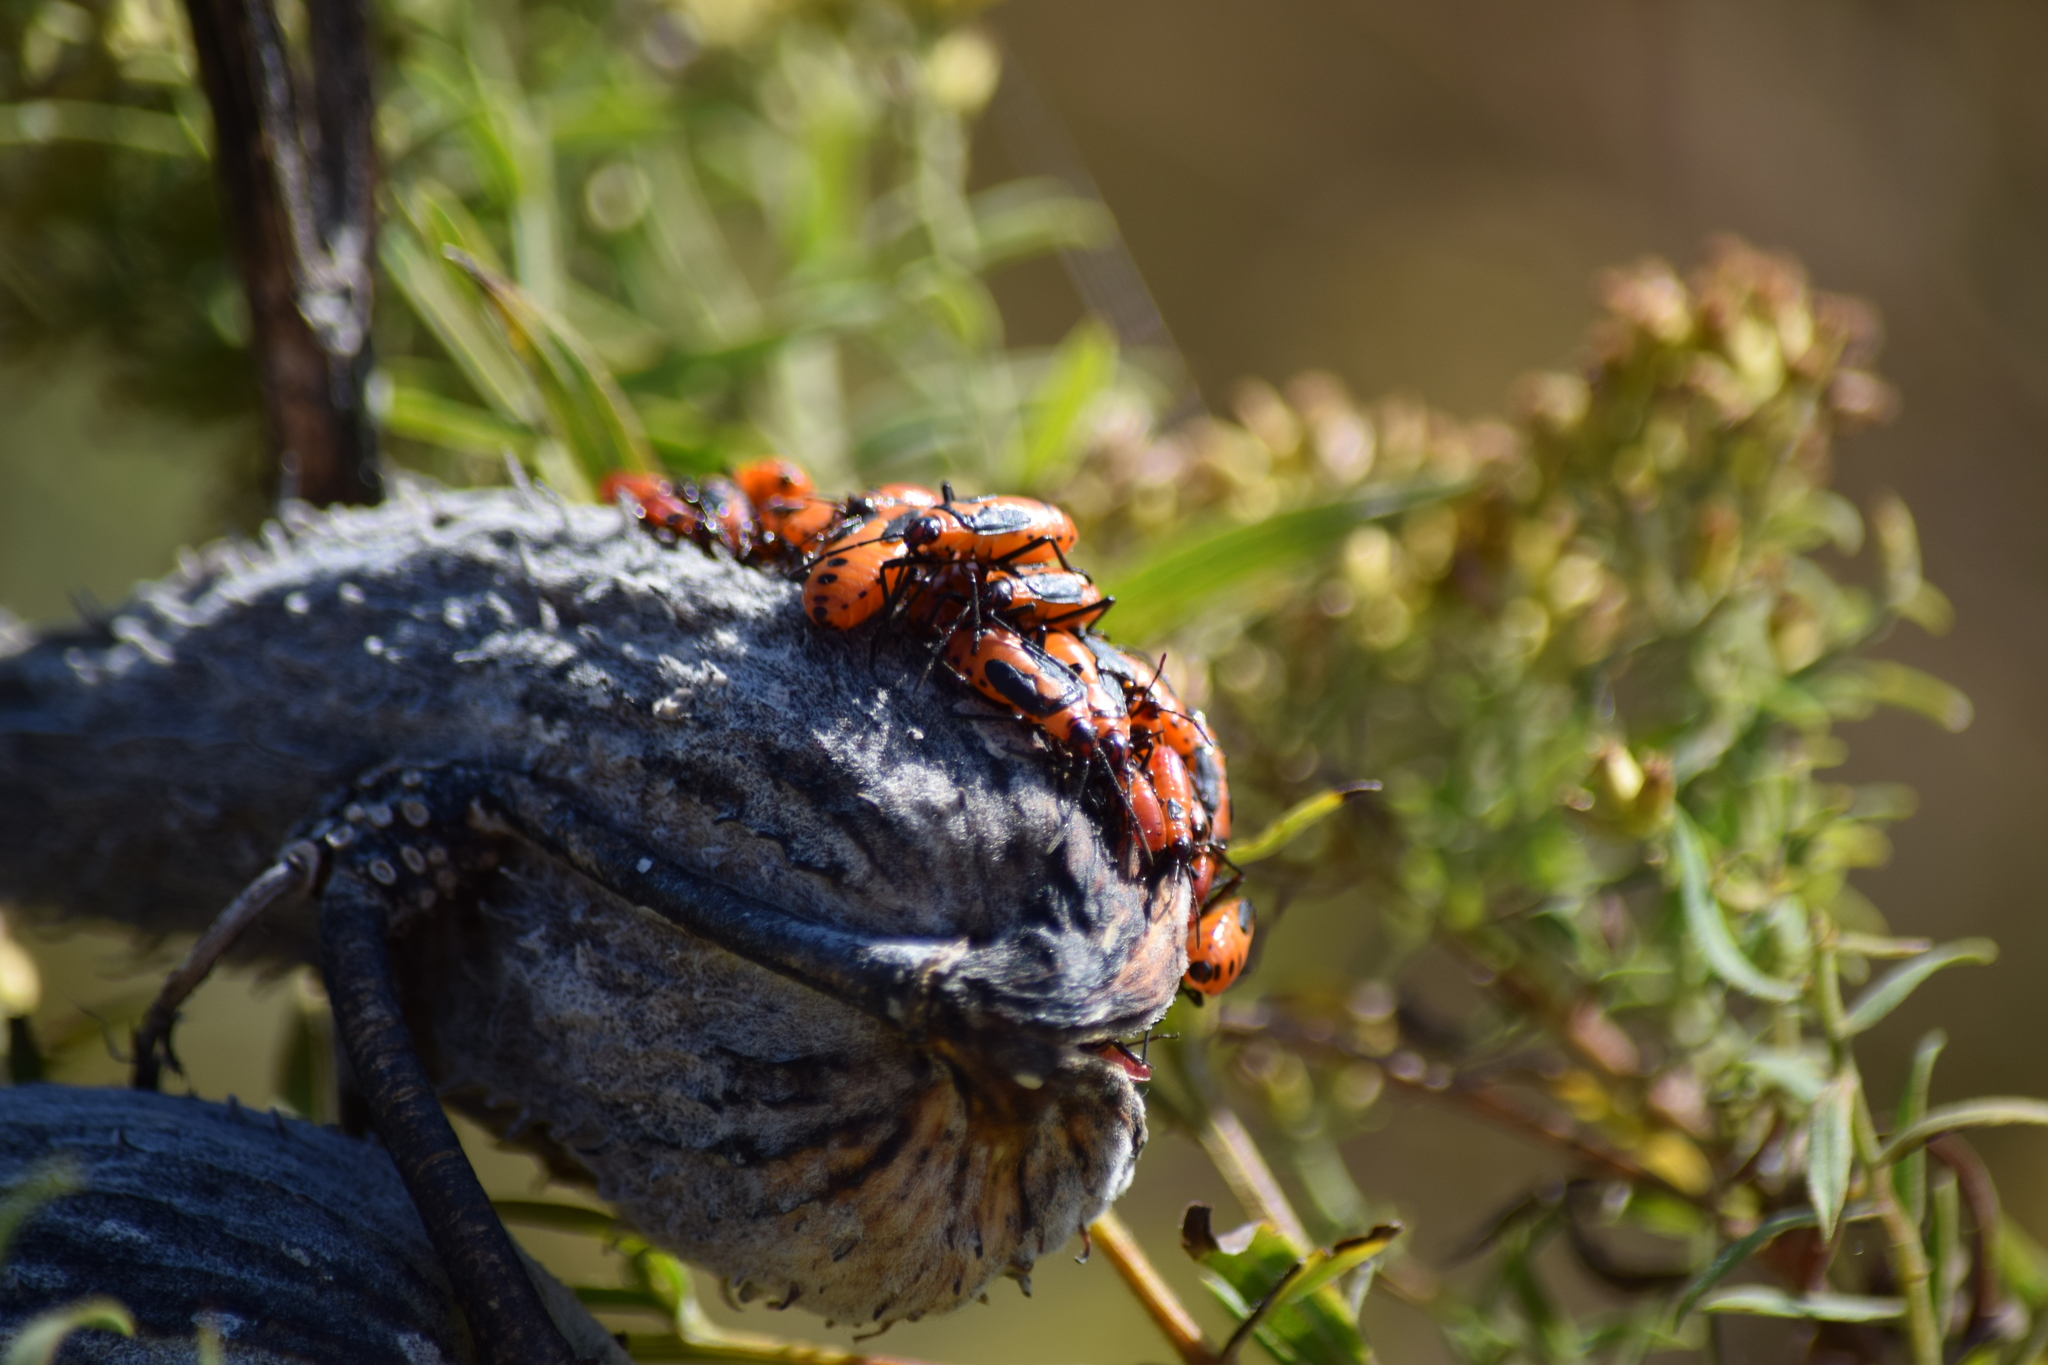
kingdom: Animalia
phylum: Arthropoda
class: Insecta
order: Hemiptera
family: Lygaeidae
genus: Oncopeltus
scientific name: Oncopeltus fasciatus
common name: Large milkweed bug
